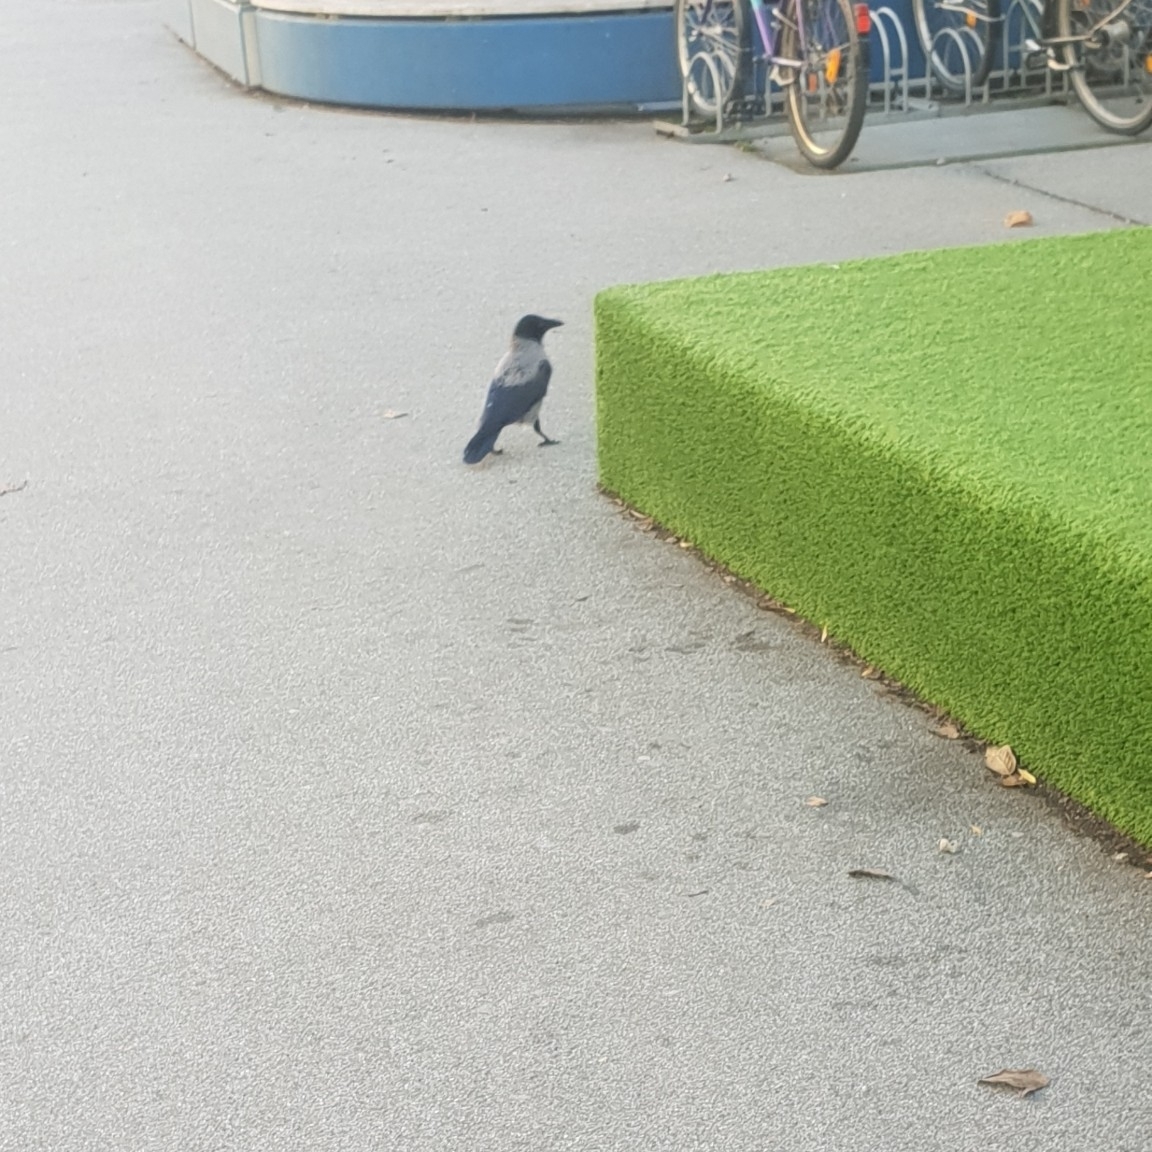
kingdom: Animalia
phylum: Chordata
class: Aves
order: Passeriformes
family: Corvidae
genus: Corvus
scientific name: Corvus cornix
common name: Hooded crow
